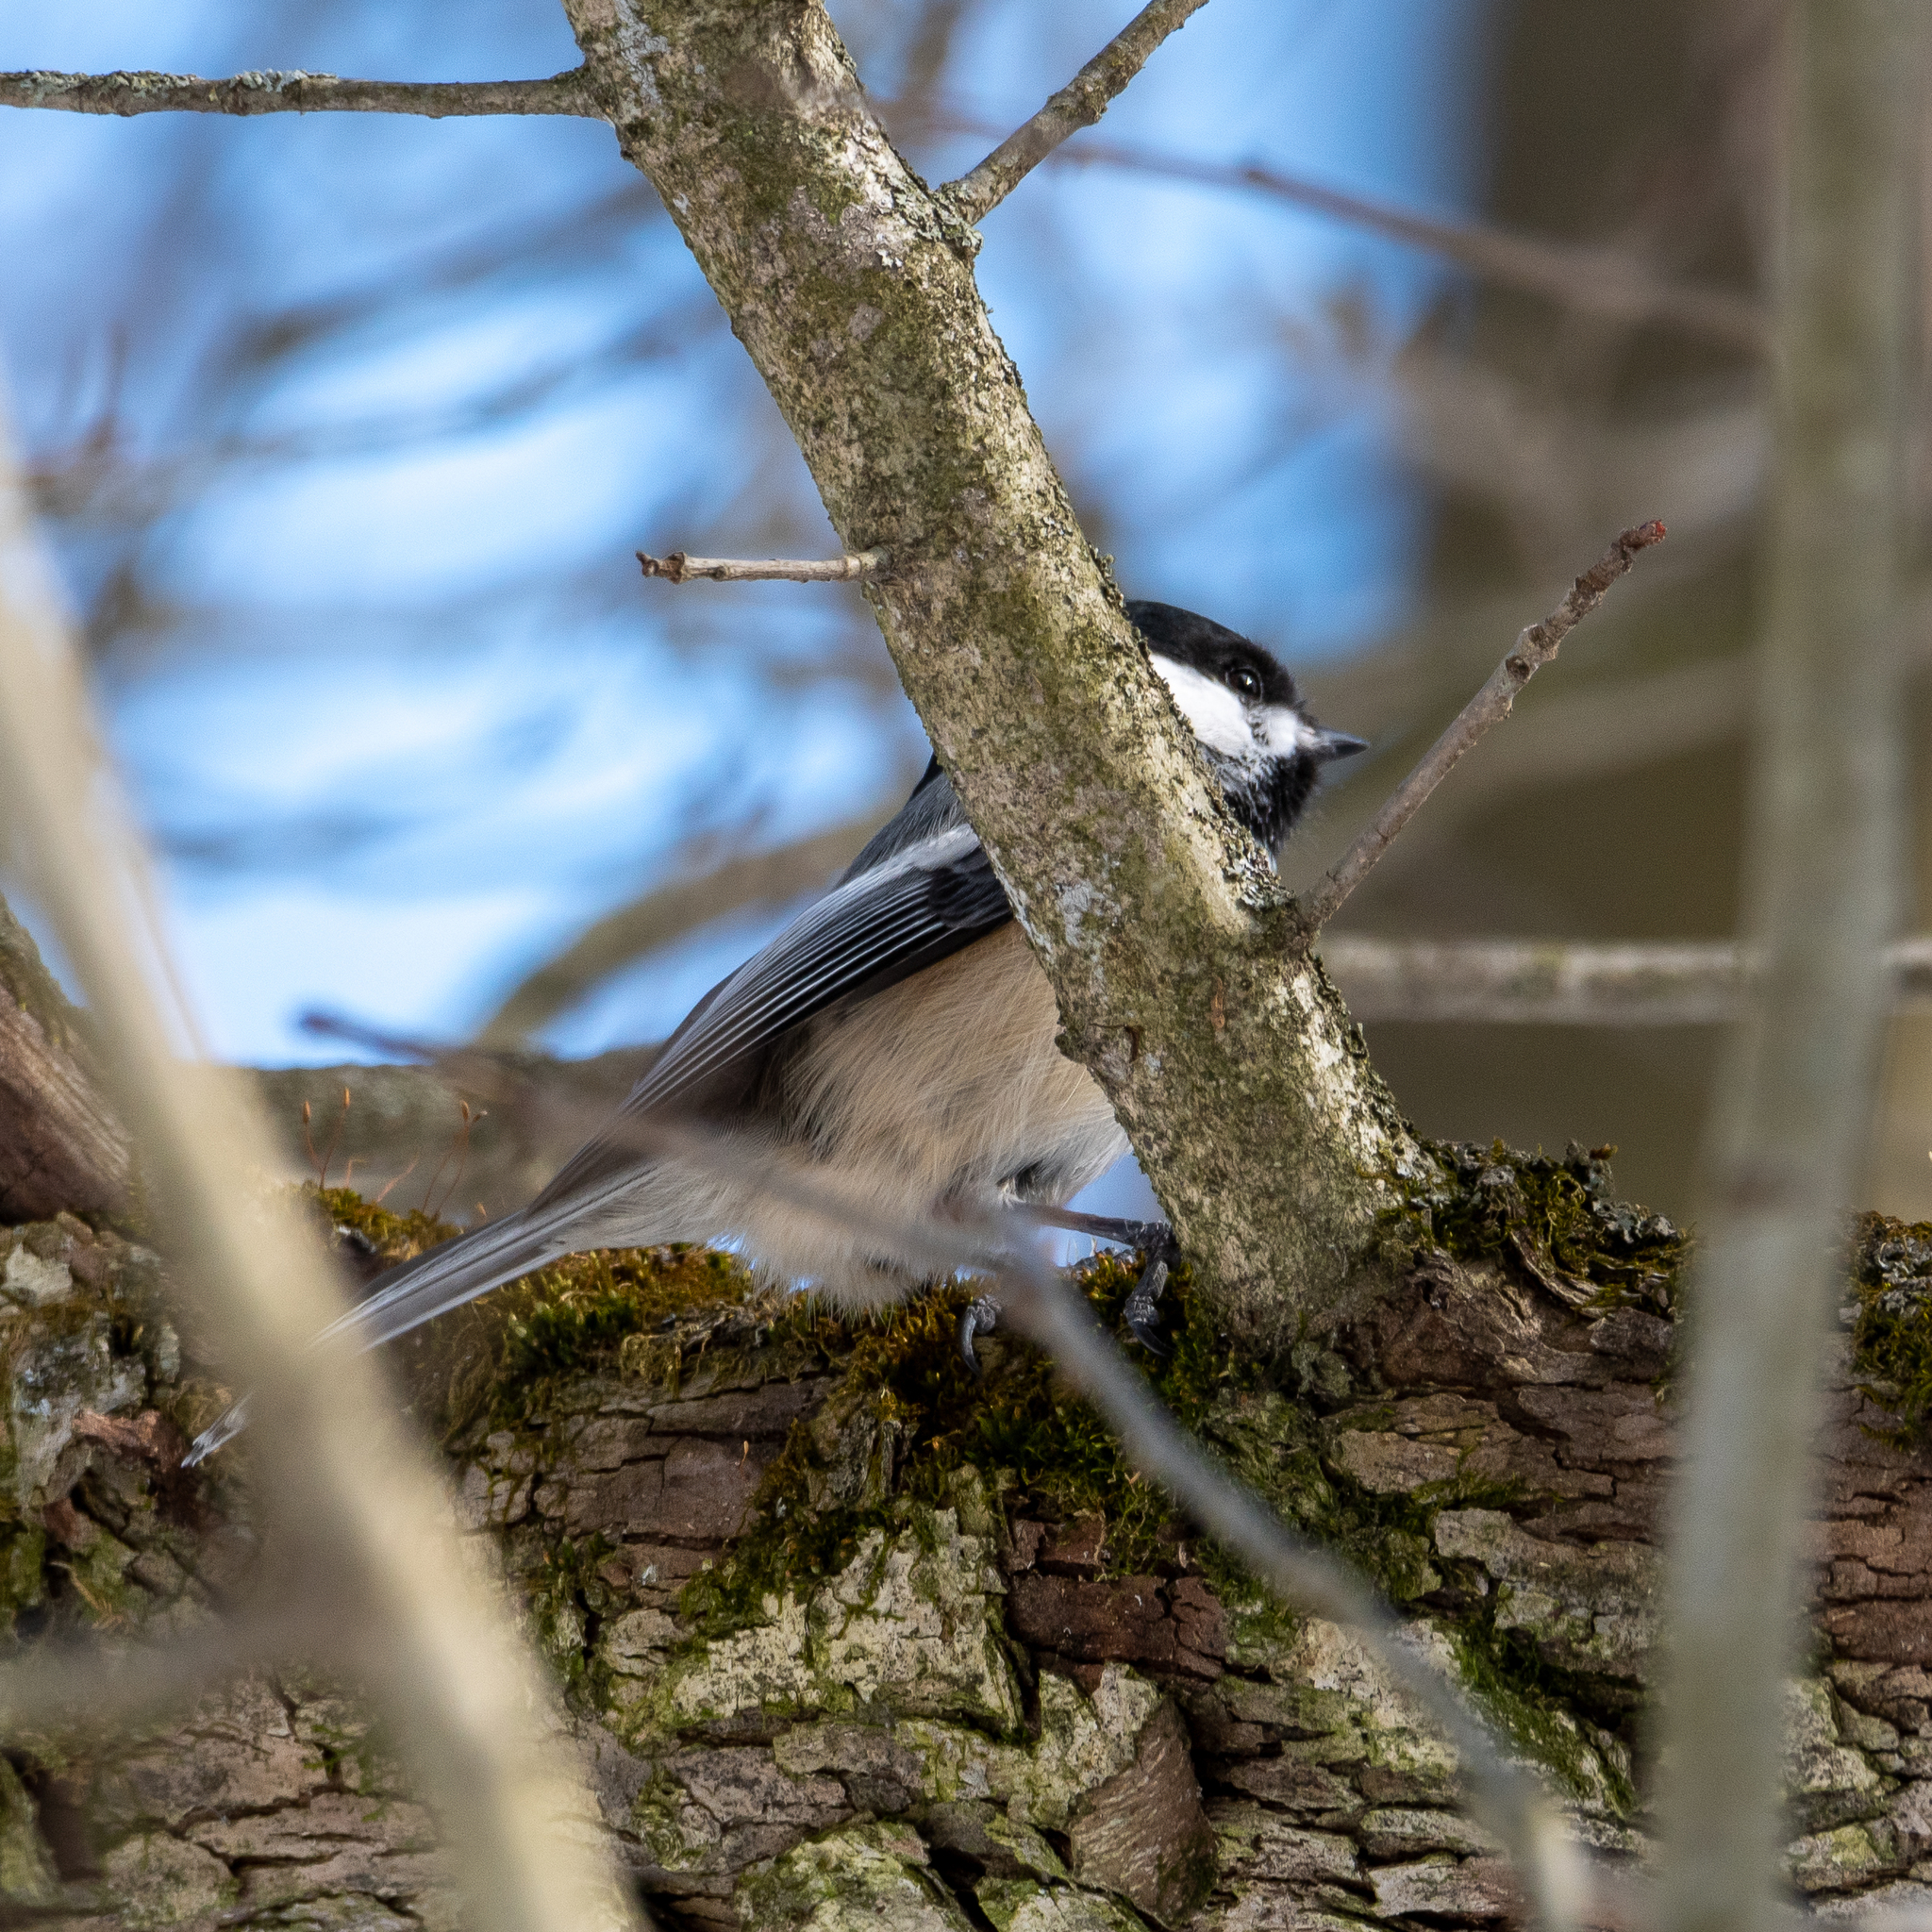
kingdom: Animalia
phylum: Chordata
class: Aves
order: Passeriformes
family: Paridae
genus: Poecile
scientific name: Poecile atricapillus
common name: Black-capped chickadee
